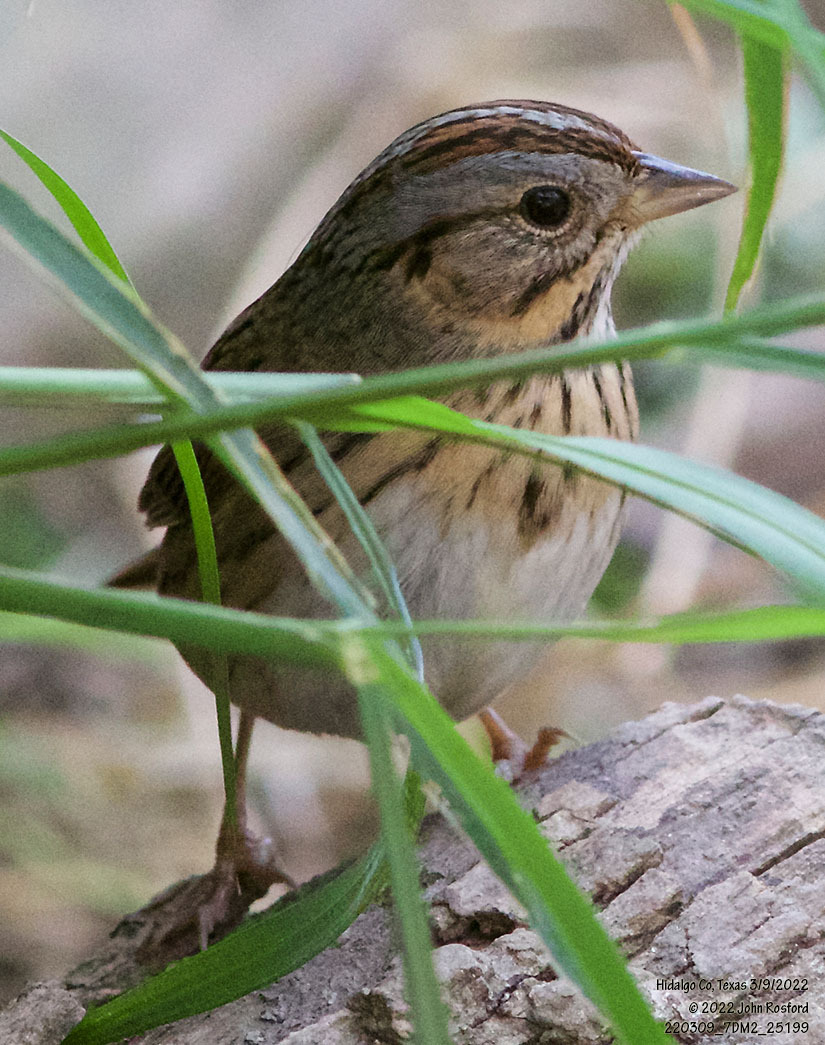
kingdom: Animalia
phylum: Chordata
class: Aves
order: Passeriformes
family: Passerellidae
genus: Melospiza
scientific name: Melospiza lincolnii
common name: Lincoln's sparrow
